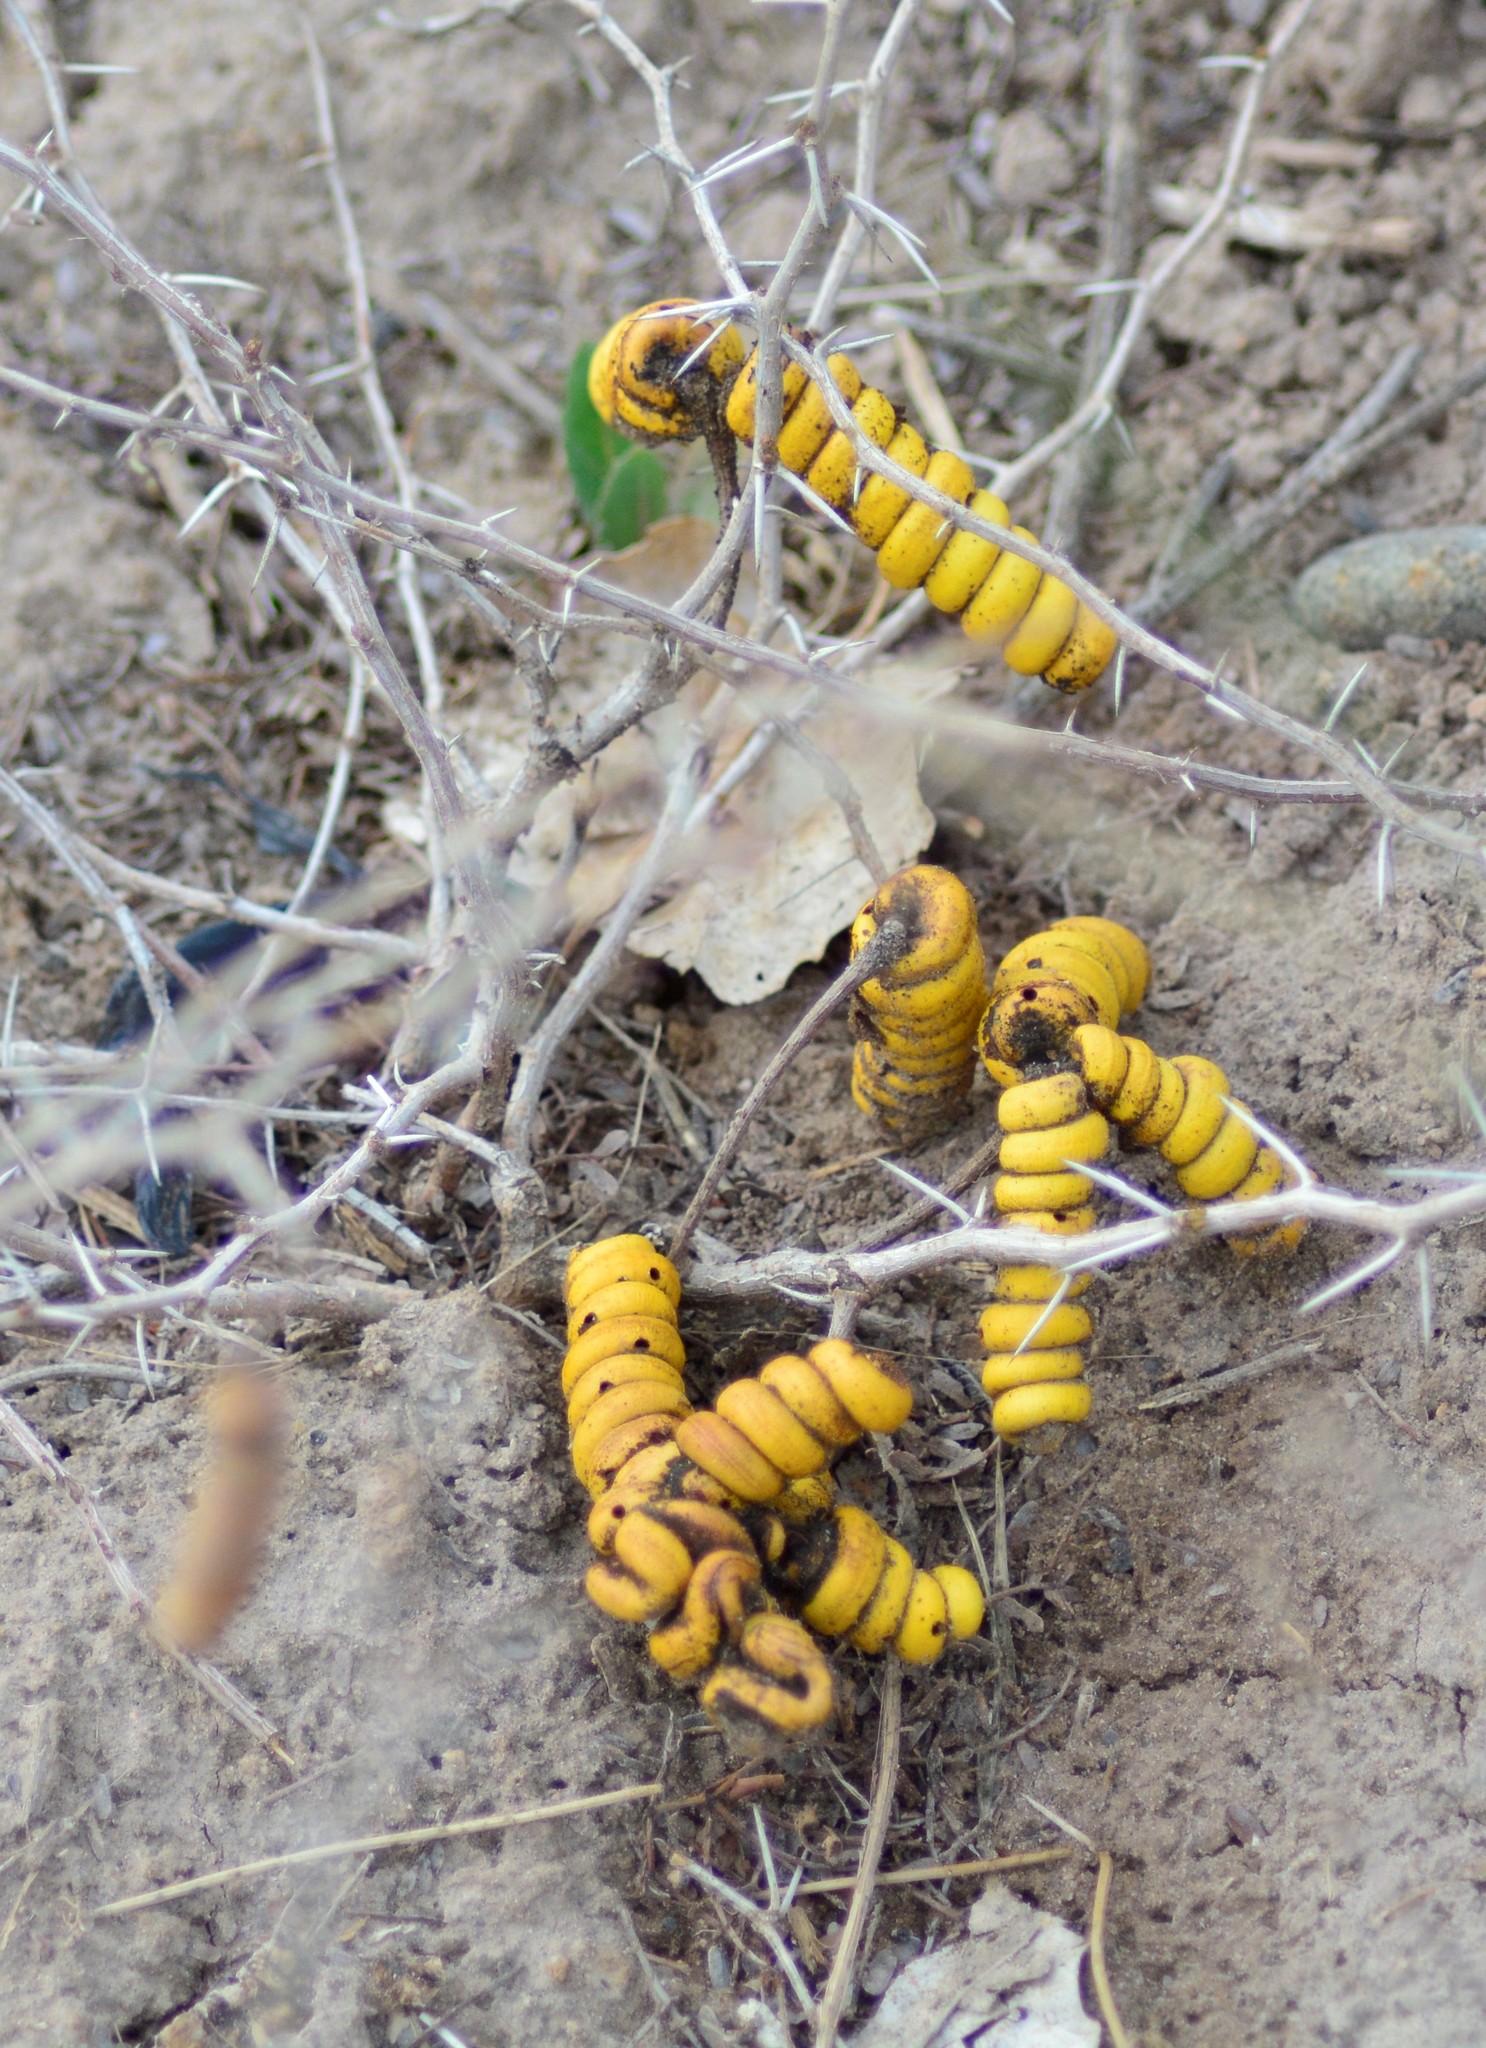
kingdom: Plantae
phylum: Tracheophyta
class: Magnoliopsida
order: Fabales
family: Fabaceae
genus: Prosopis
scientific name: Prosopis strombulifera
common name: Creeping mesquite
